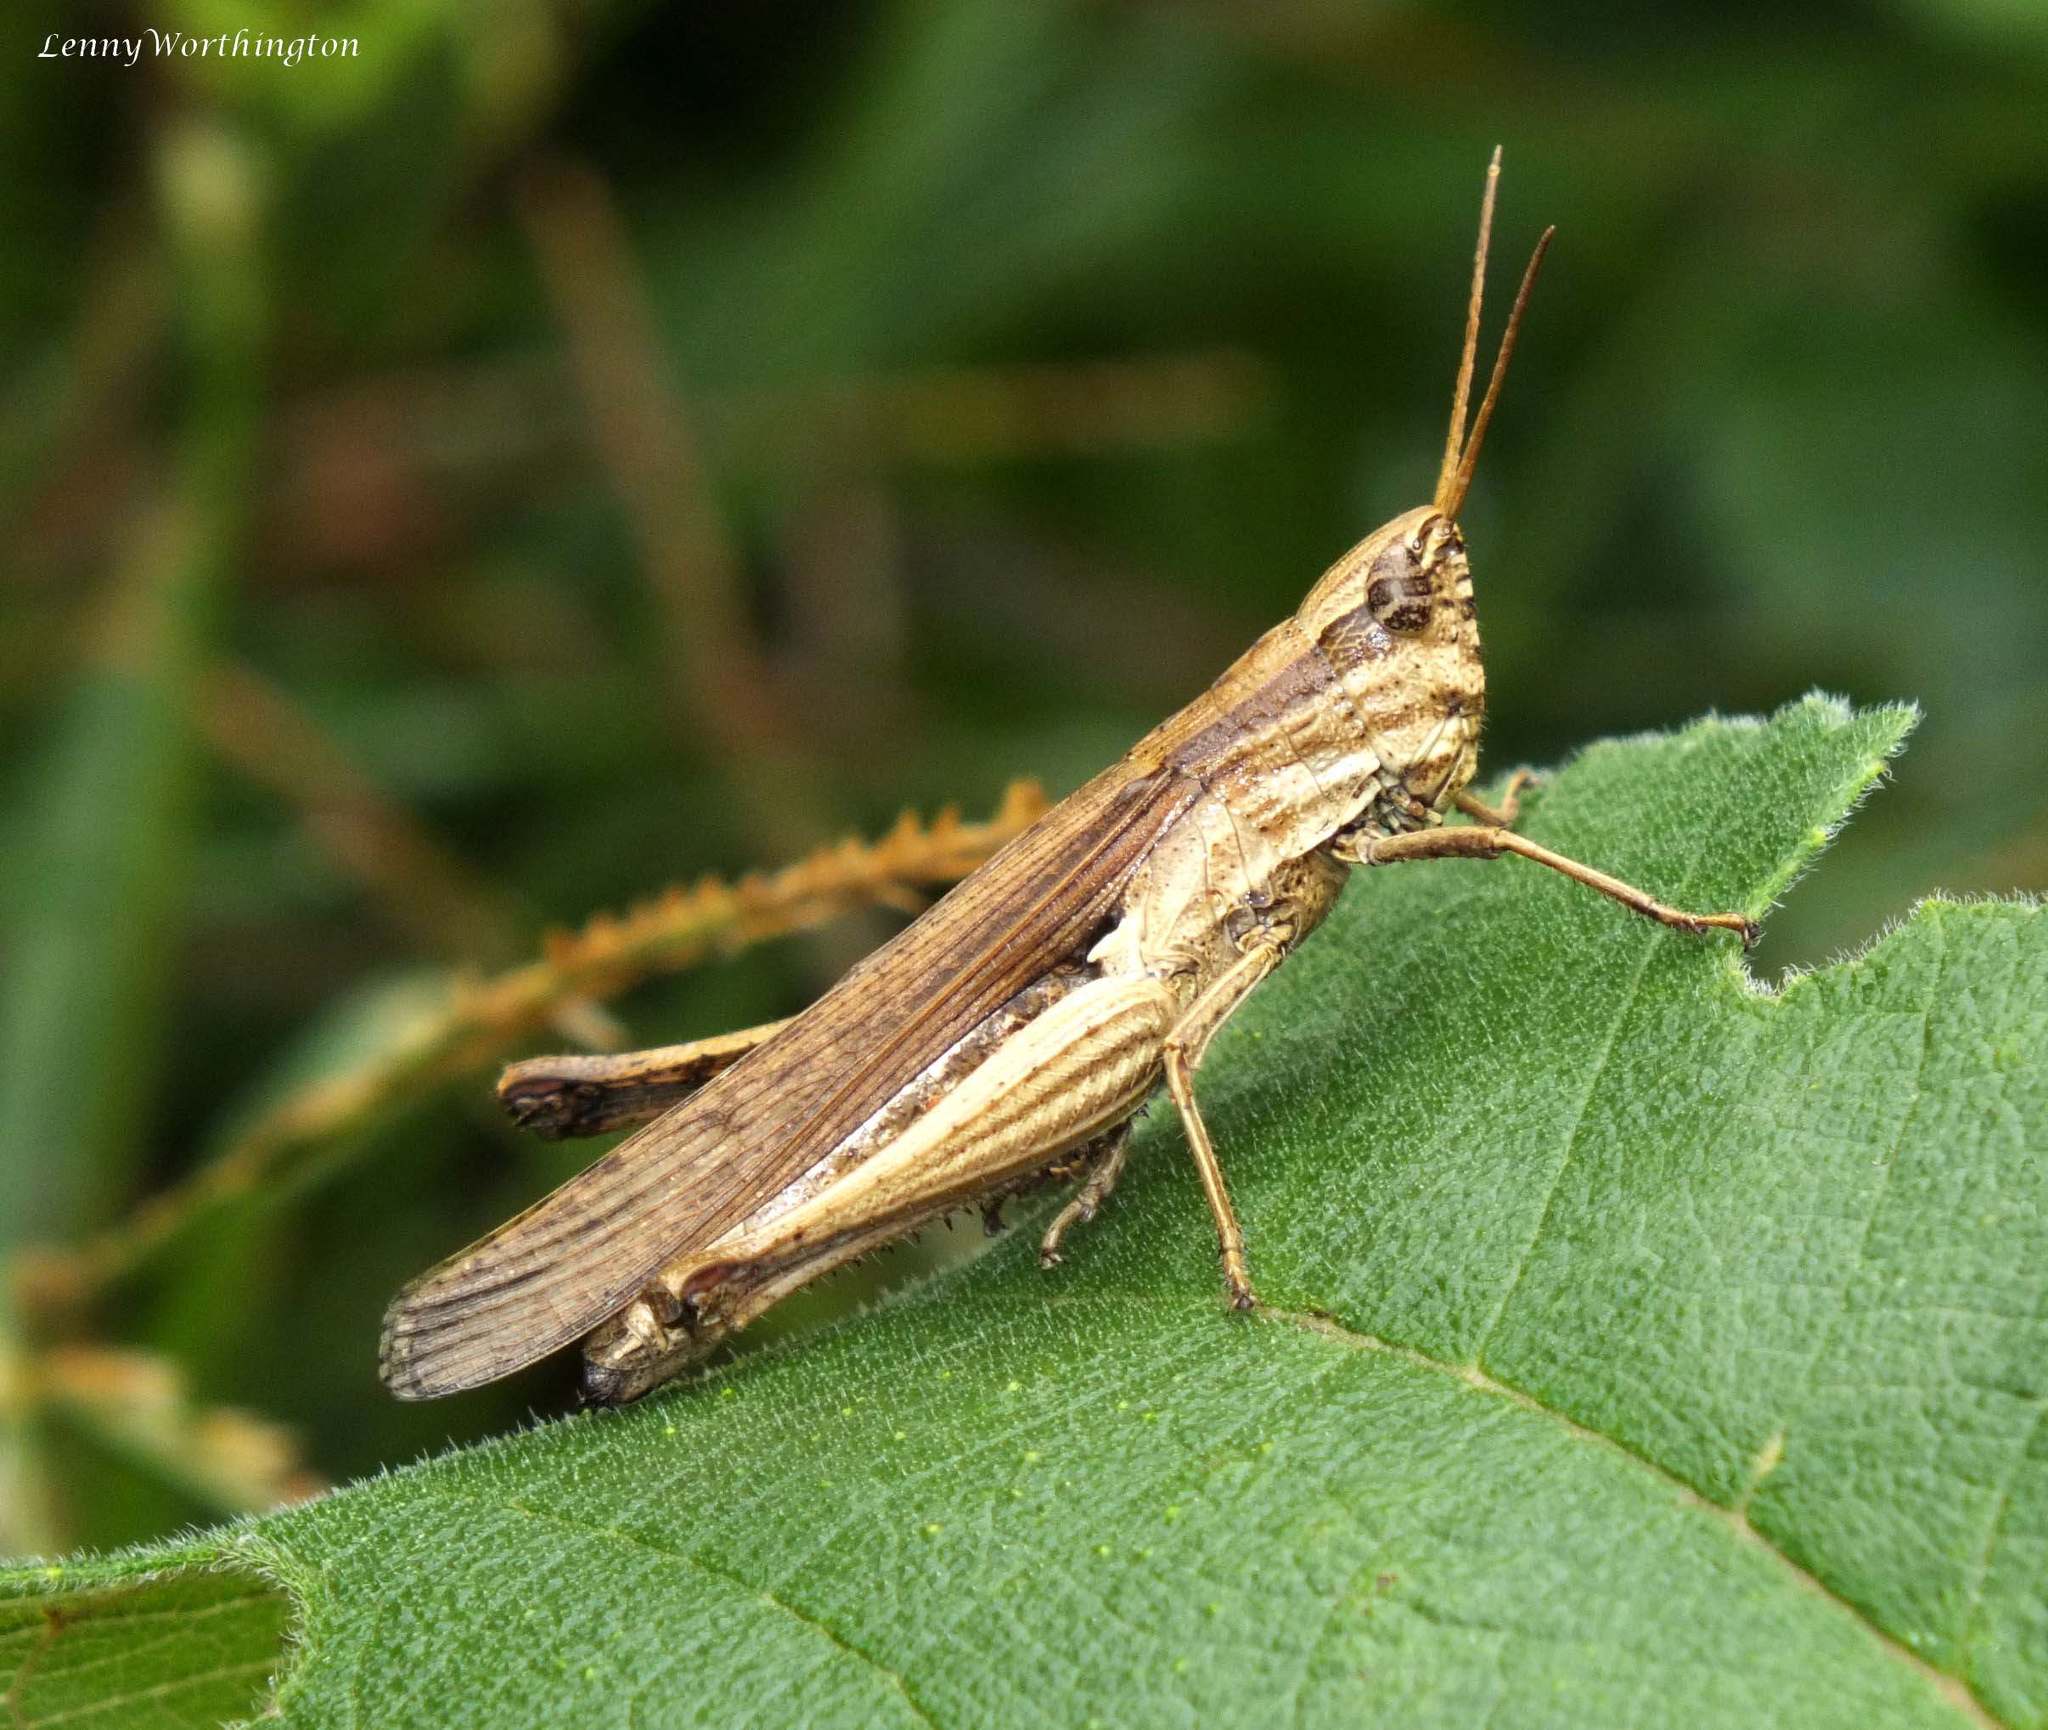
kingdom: Animalia
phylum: Arthropoda
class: Insecta
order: Orthoptera
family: Acrididae
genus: Phlaeoba
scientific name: Phlaeoba infumata
